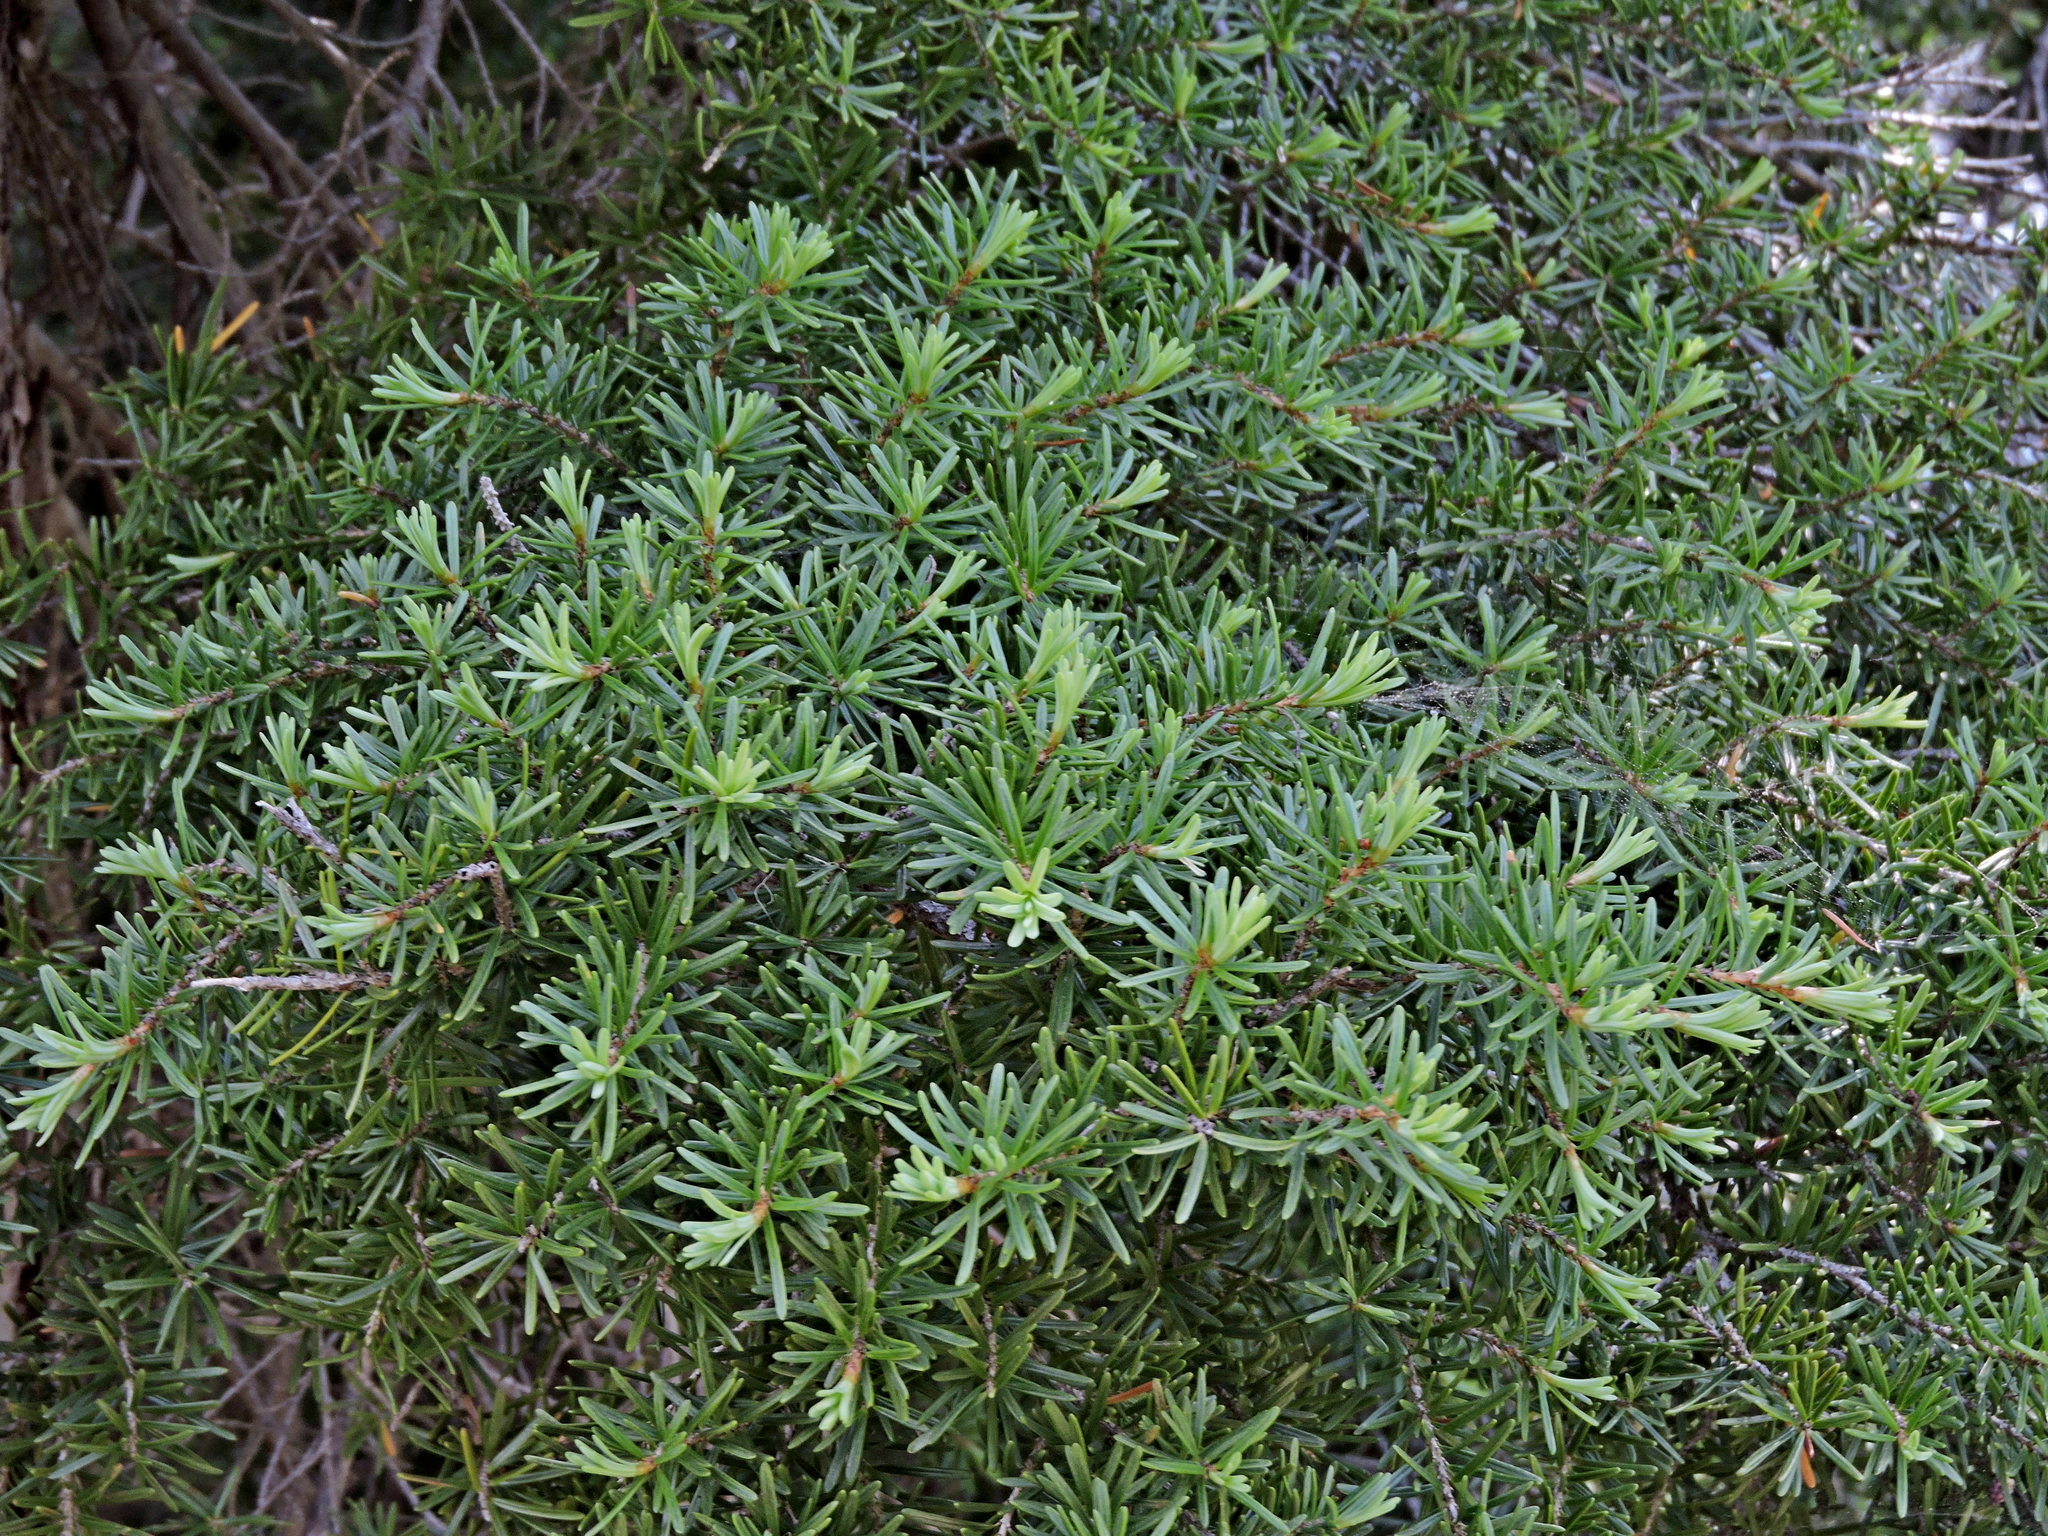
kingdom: Plantae
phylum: Tracheophyta
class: Pinopsida
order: Pinales
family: Pinaceae
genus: Tsuga
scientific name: Tsuga mertensiana
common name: Mountain hemlock
